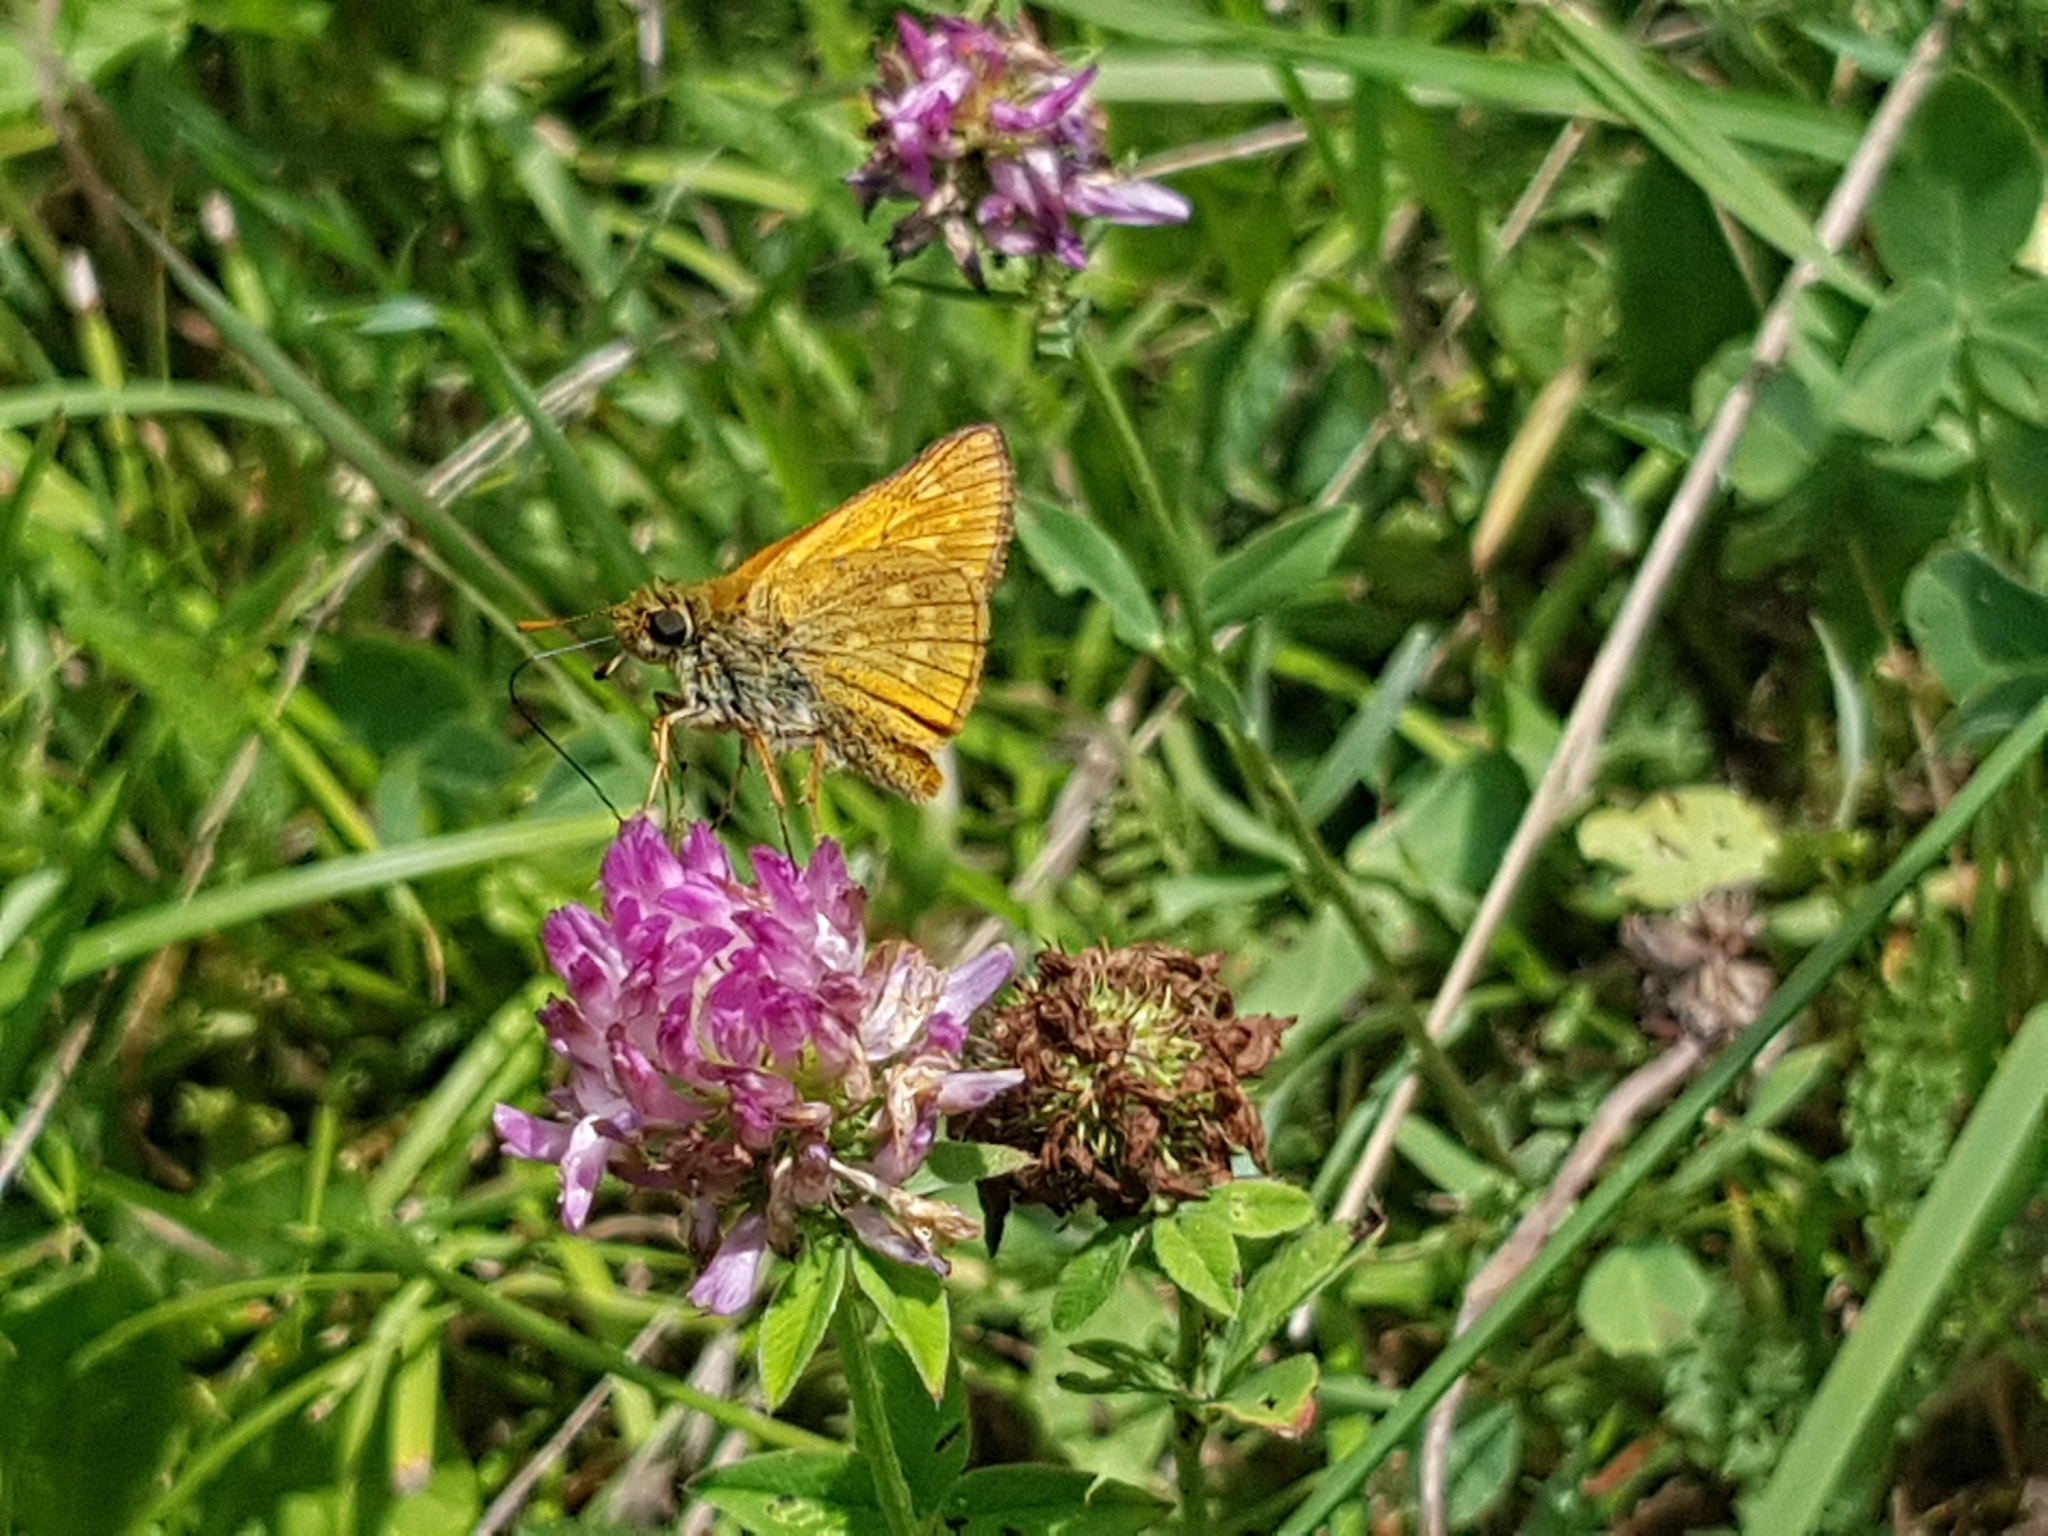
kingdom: Animalia
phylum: Arthropoda
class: Insecta
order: Lepidoptera
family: Hesperiidae
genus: Ochlodes
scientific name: Ochlodes venata
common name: Large skipper
